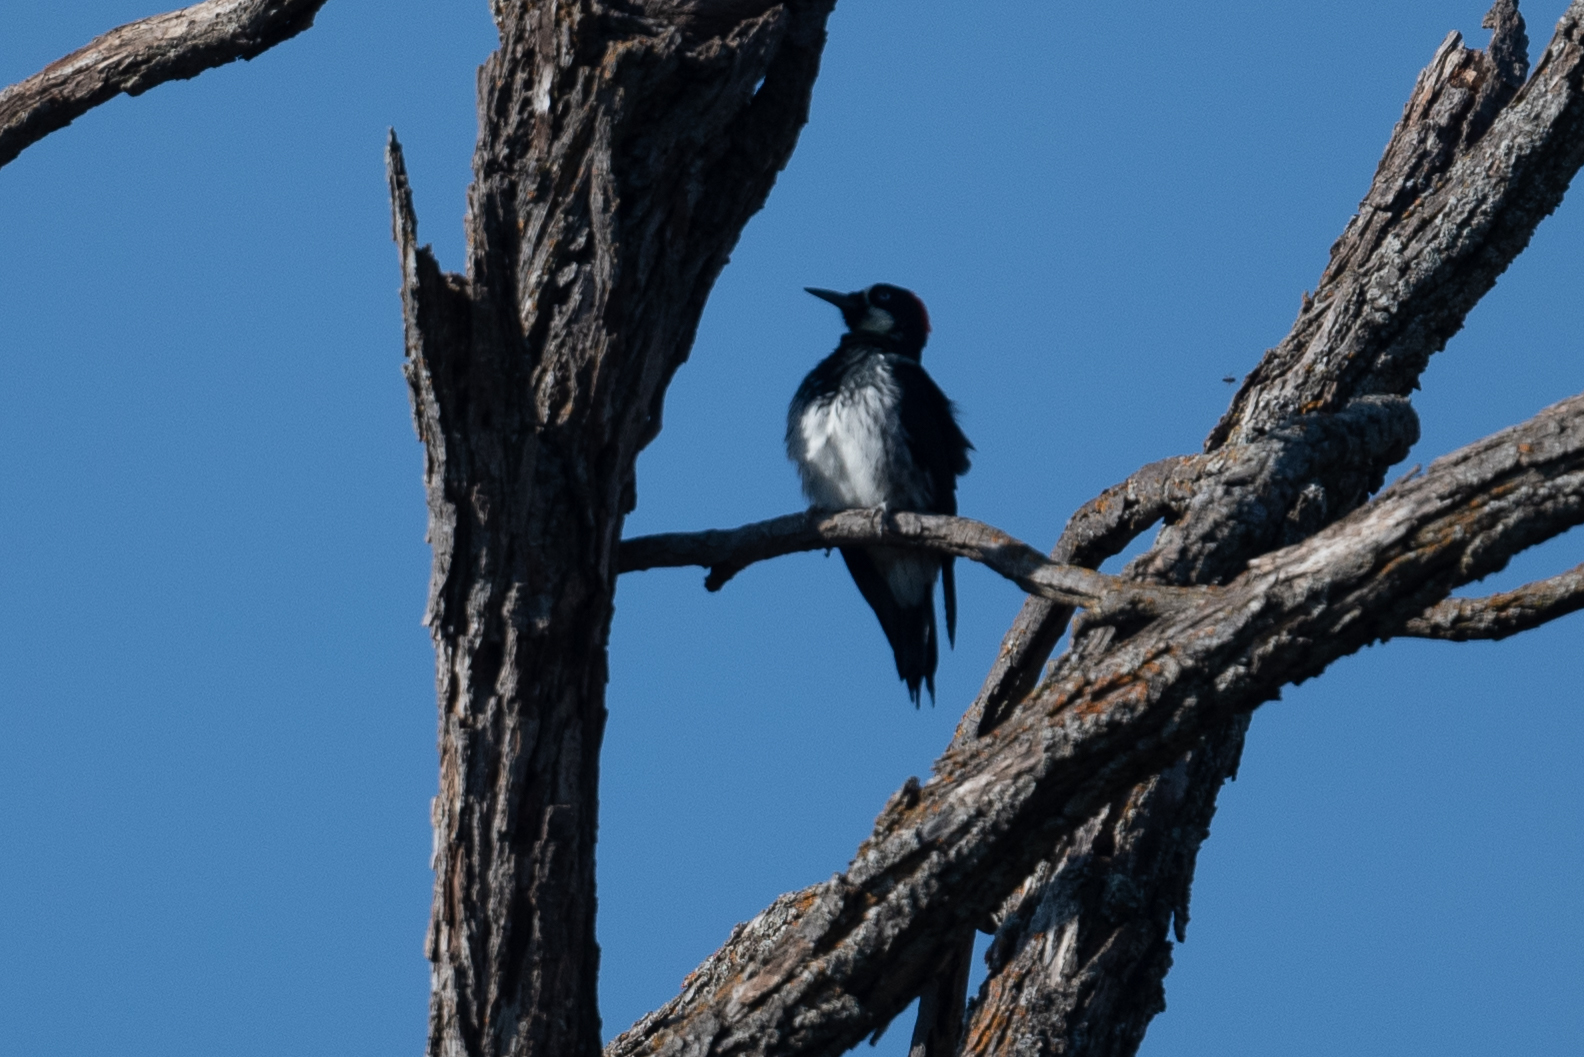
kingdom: Animalia
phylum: Chordata
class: Aves
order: Piciformes
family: Picidae
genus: Melanerpes
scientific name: Melanerpes formicivorus
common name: Acorn woodpecker
